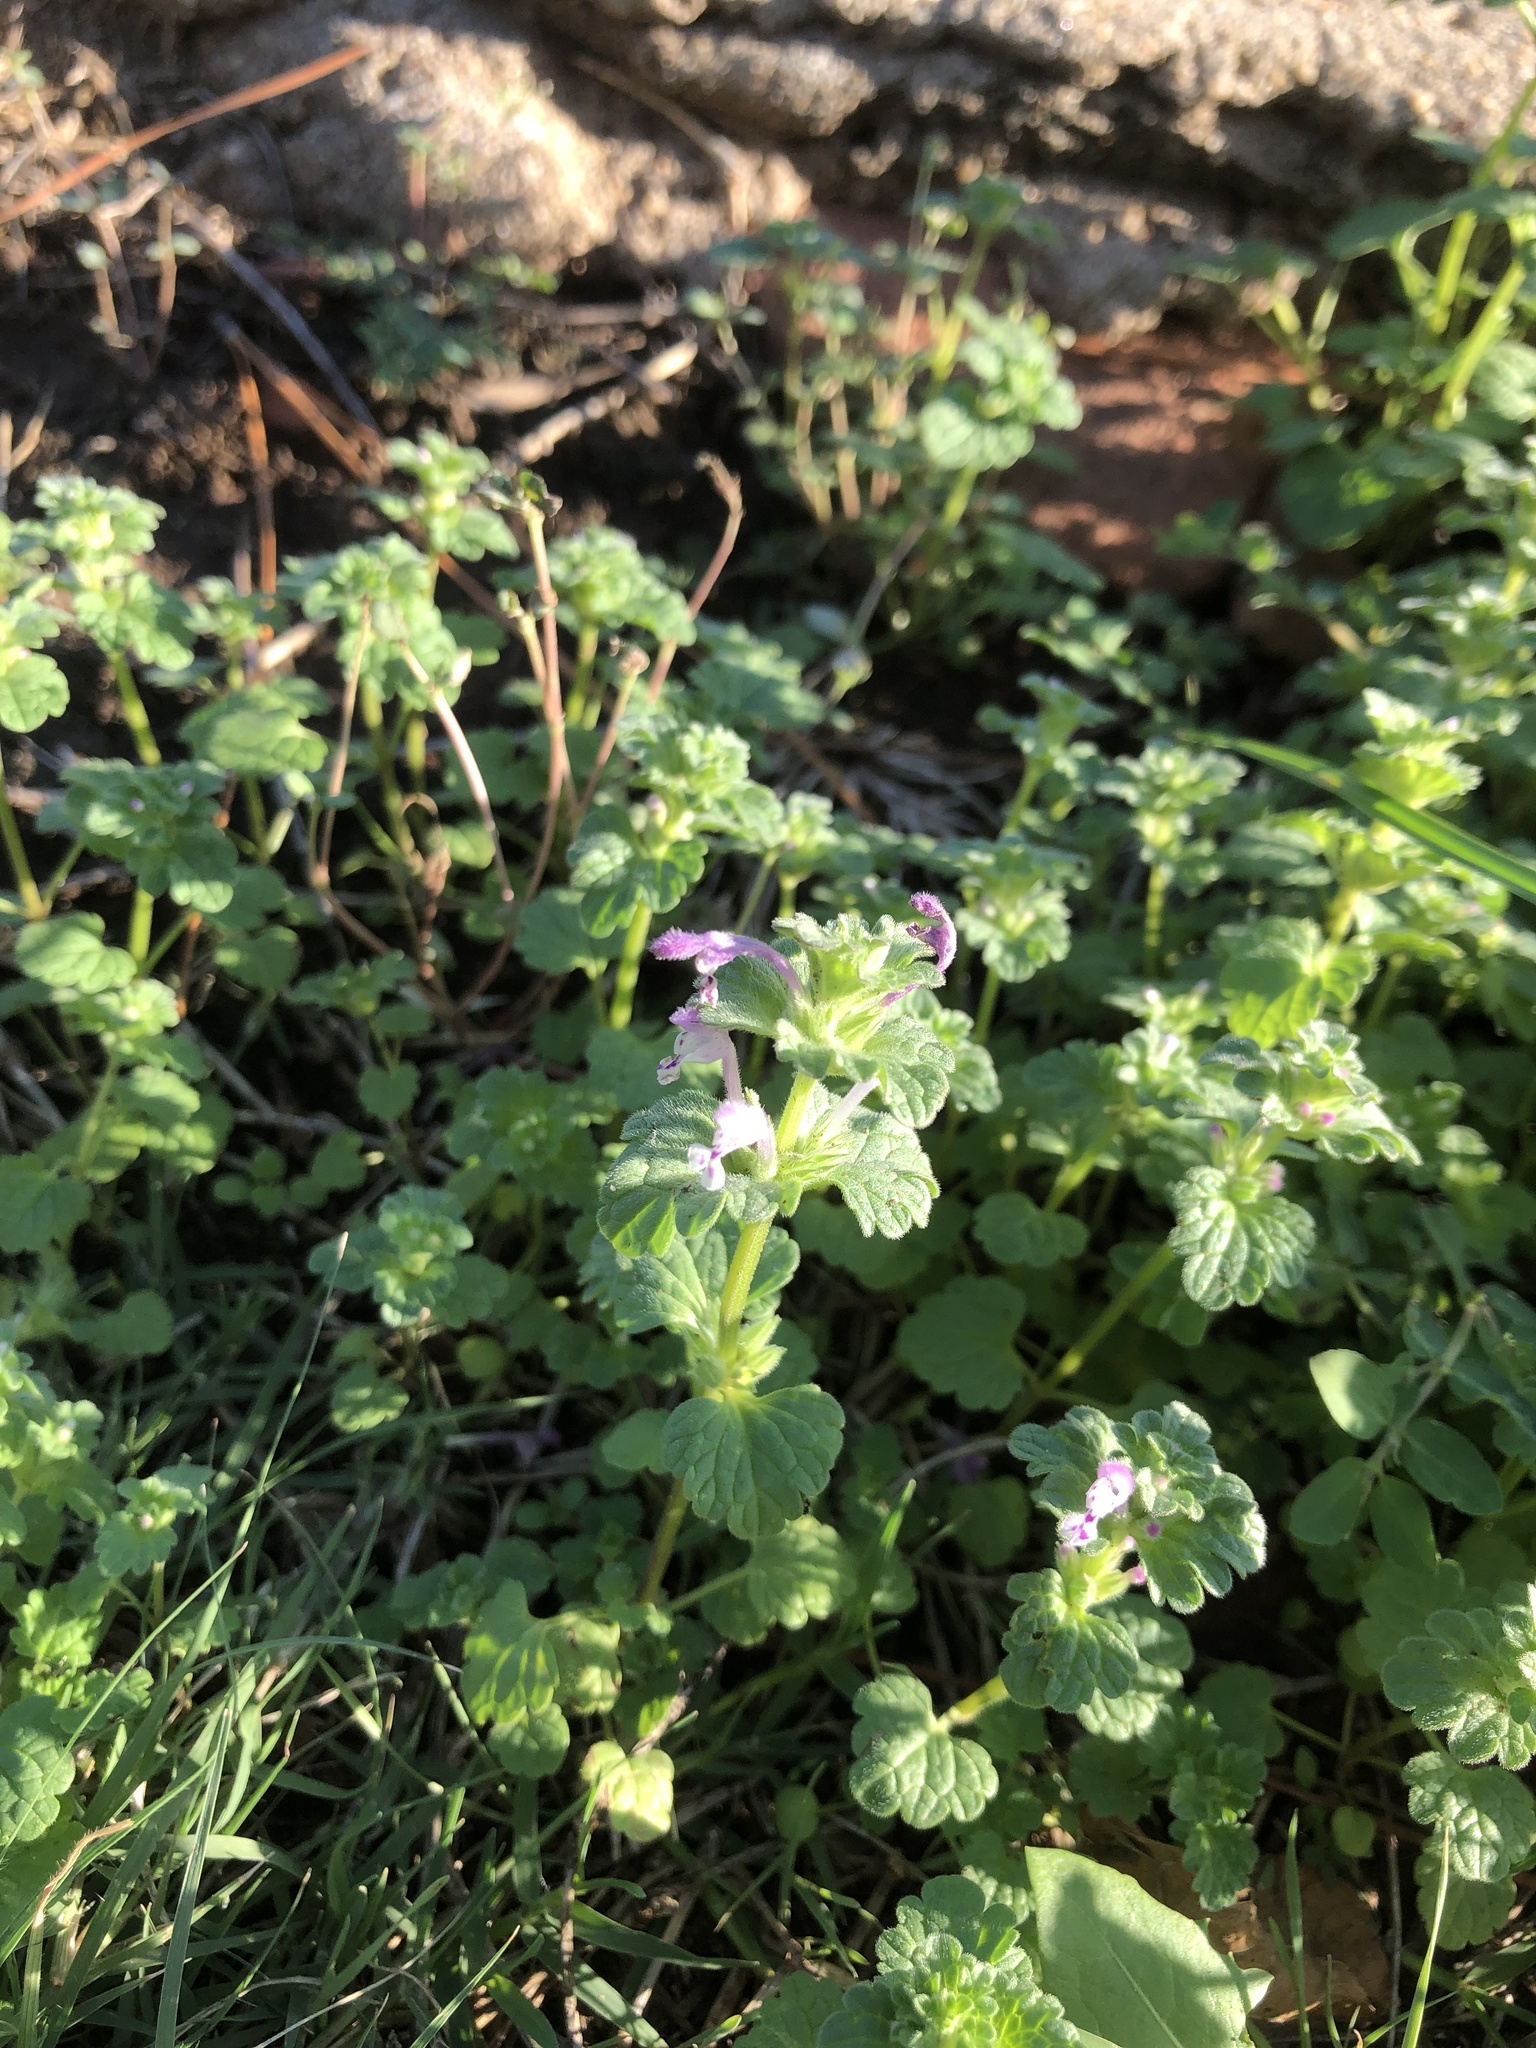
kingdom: Plantae
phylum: Tracheophyta
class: Magnoliopsida
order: Lamiales
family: Lamiaceae
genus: Lamium
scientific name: Lamium amplexicaule
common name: Henbit dead-nettle
